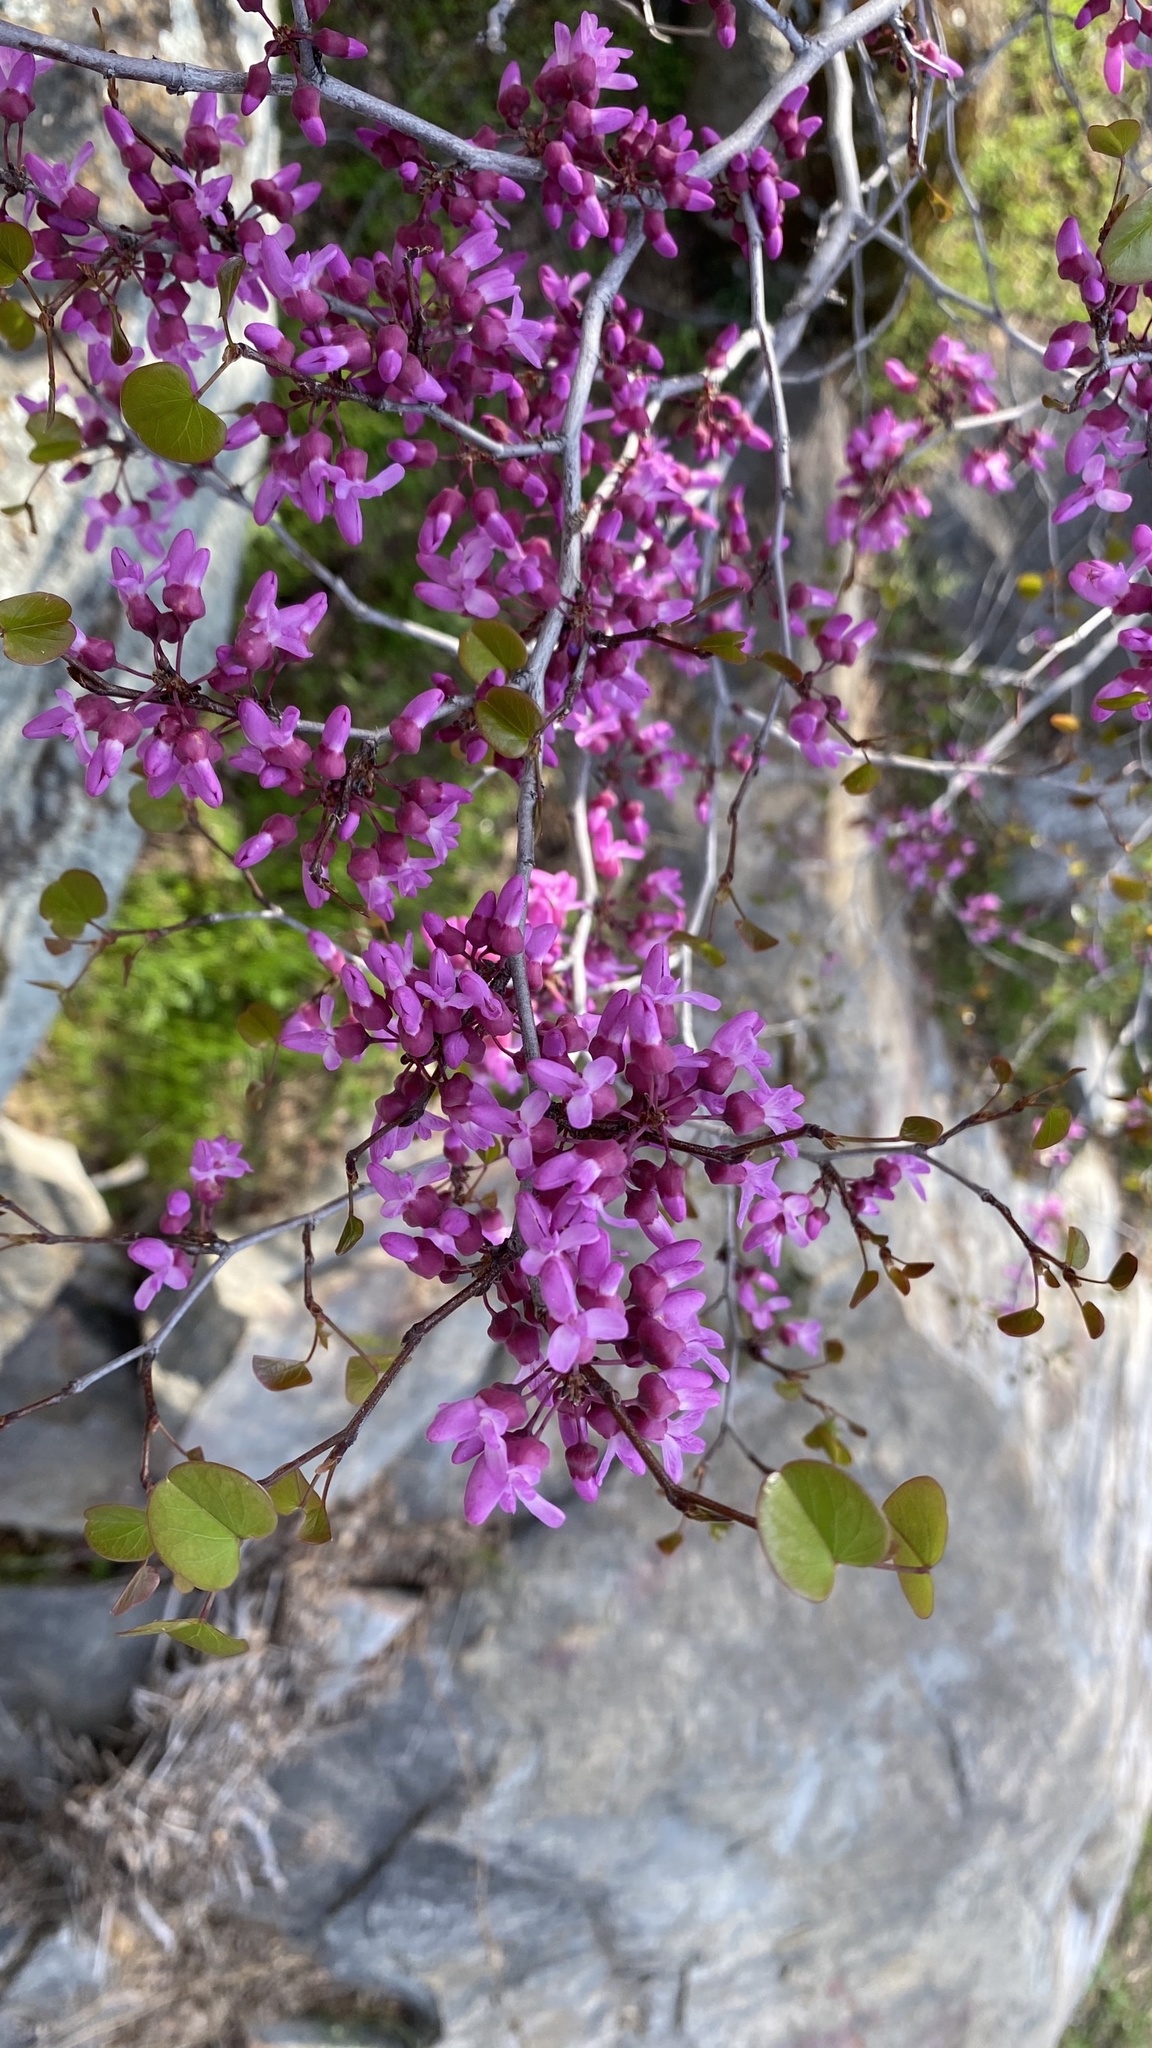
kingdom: Plantae
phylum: Tracheophyta
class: Magnoliopsida
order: Fabales
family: Fabaceae
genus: Cercis
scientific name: Cercis occidentalis
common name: California redbud
